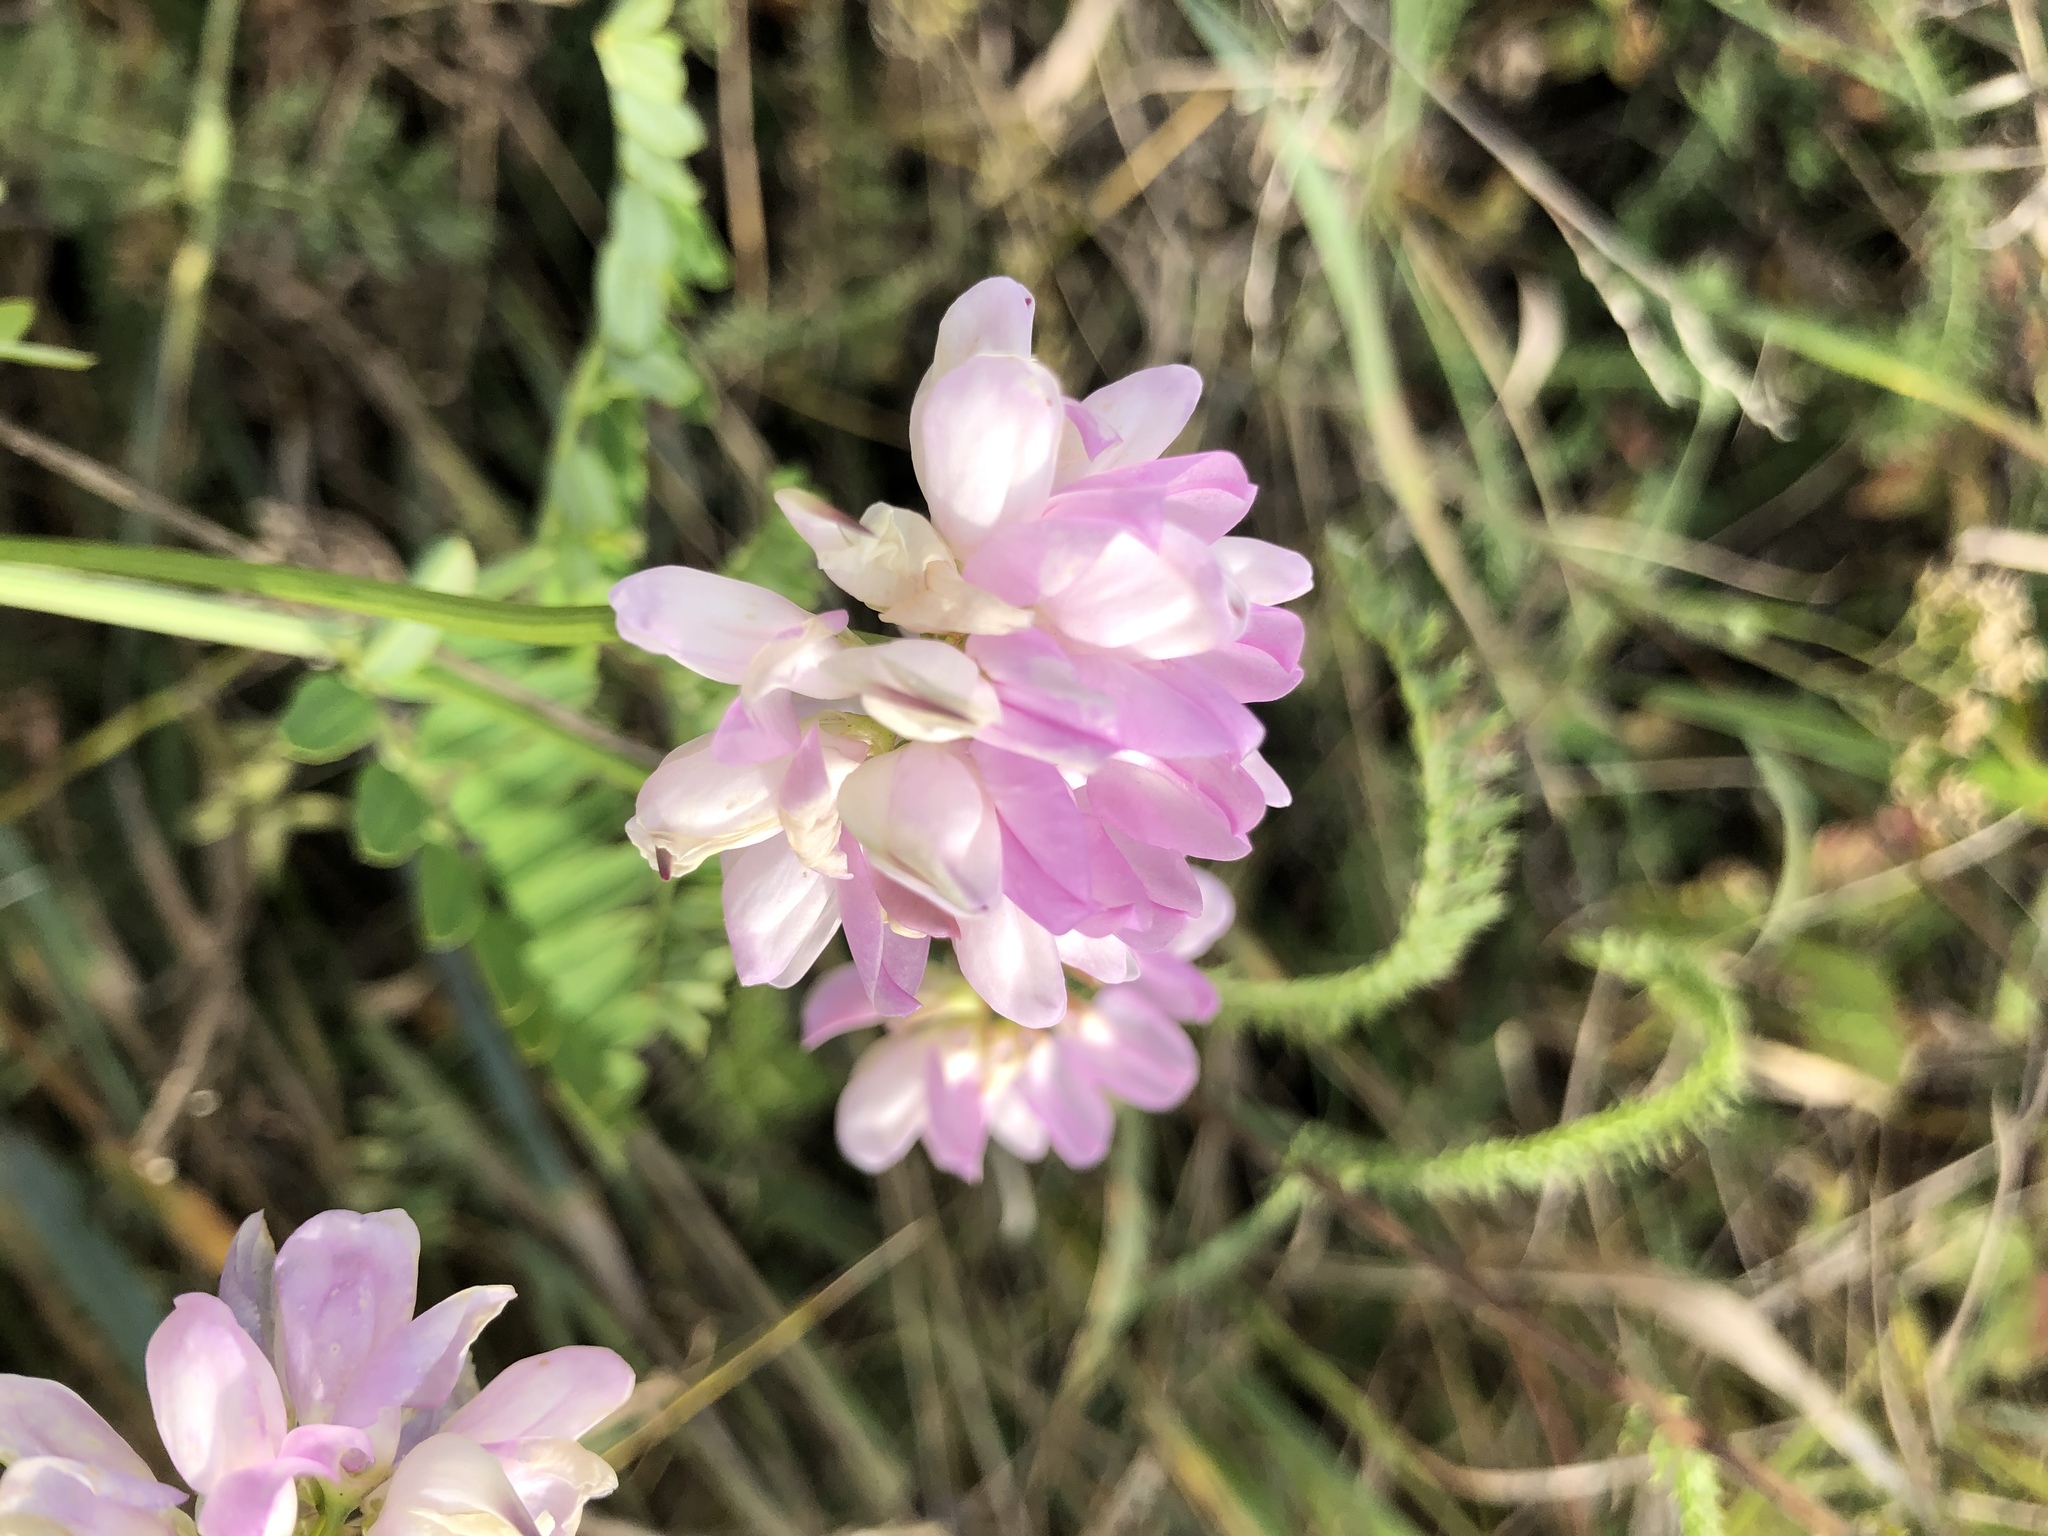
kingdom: Plantae
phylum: Tracheophyta
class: Magnoliopsida
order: Fabales
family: Fabaceae
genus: Coronilla
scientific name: Coronilla varia
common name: Crownvetch
